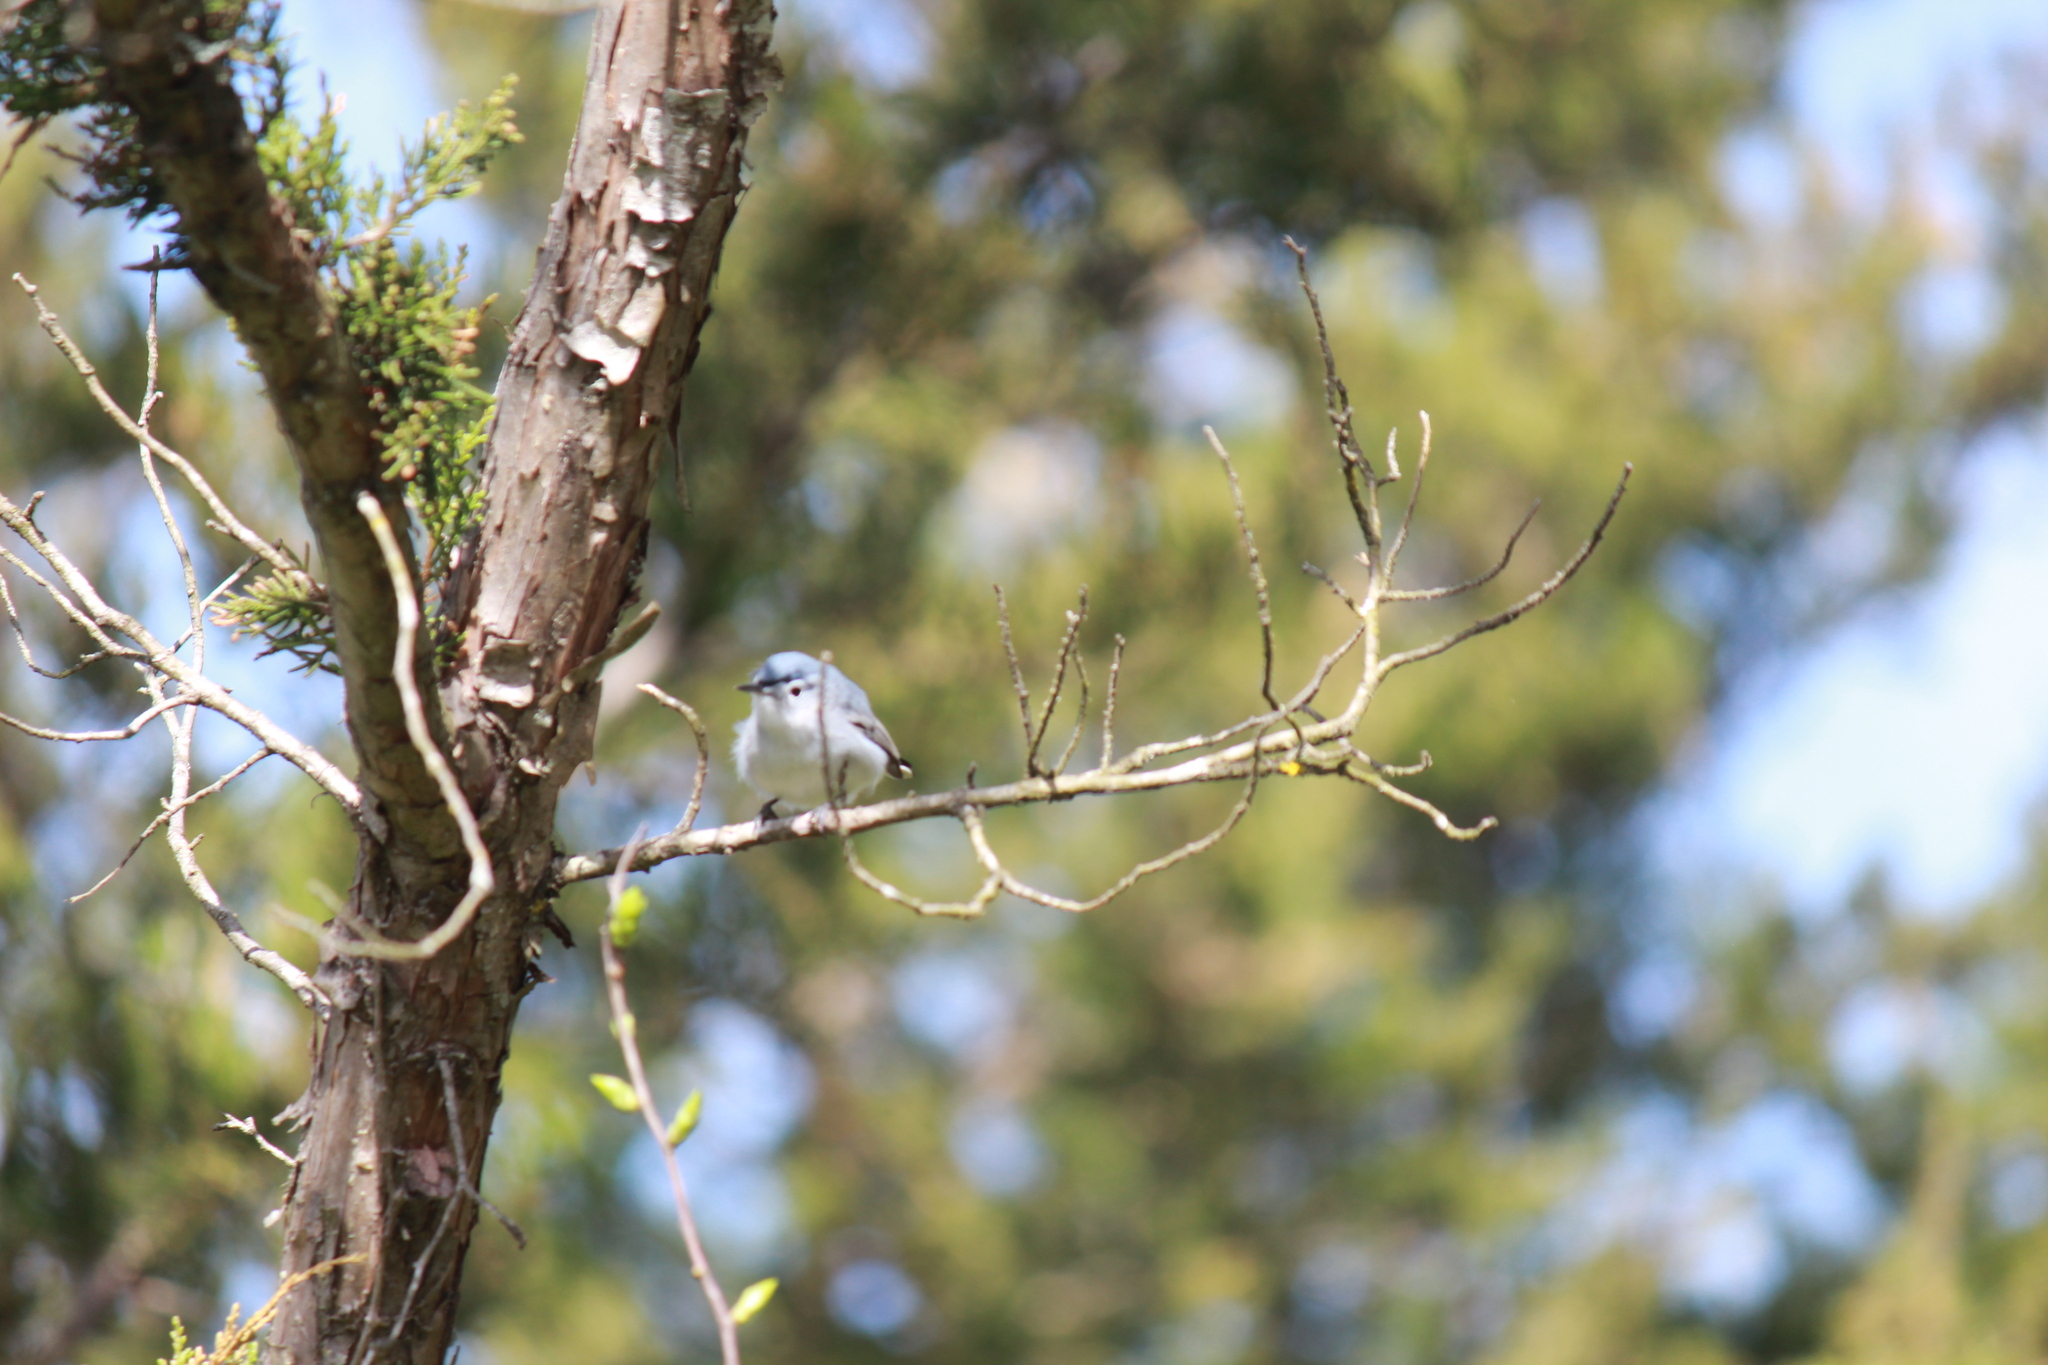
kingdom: Animalia
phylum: Chordata
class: Aves
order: Passeriformes
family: Polioptilidae
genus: Polioptila
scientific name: Polioptila caerulea
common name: Blue-gray gnatcatcher
